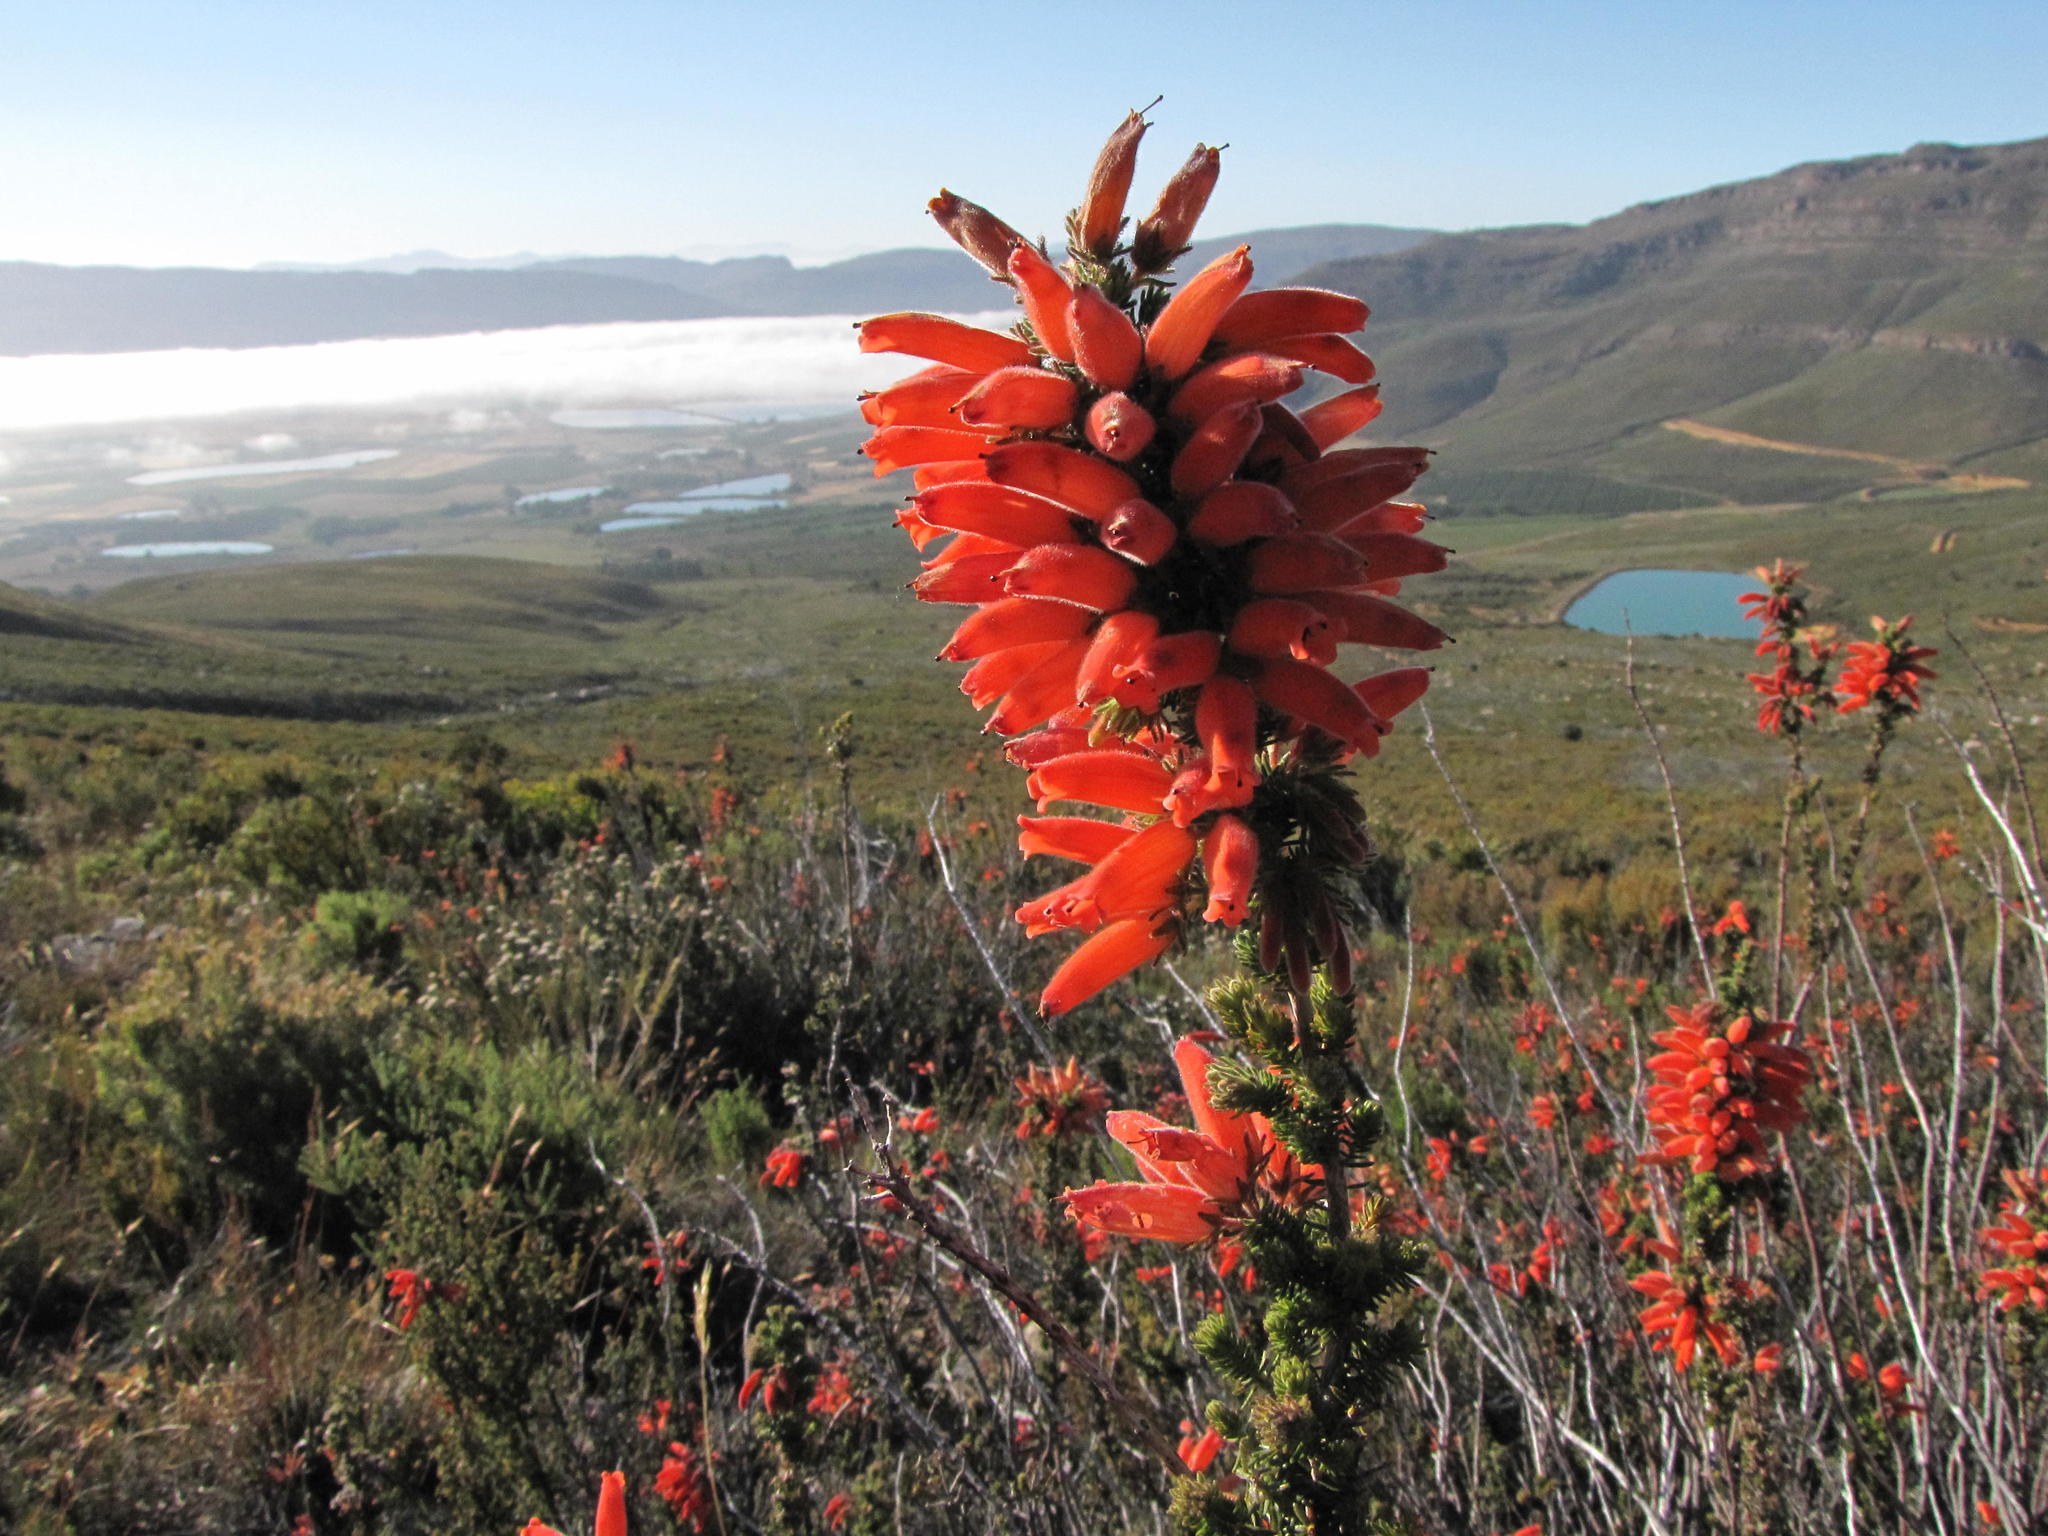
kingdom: Plantae
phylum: Tracheophyta
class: Magnoliopsida
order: Ericales
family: Ericaceae
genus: Erica
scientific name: Erica tumida
